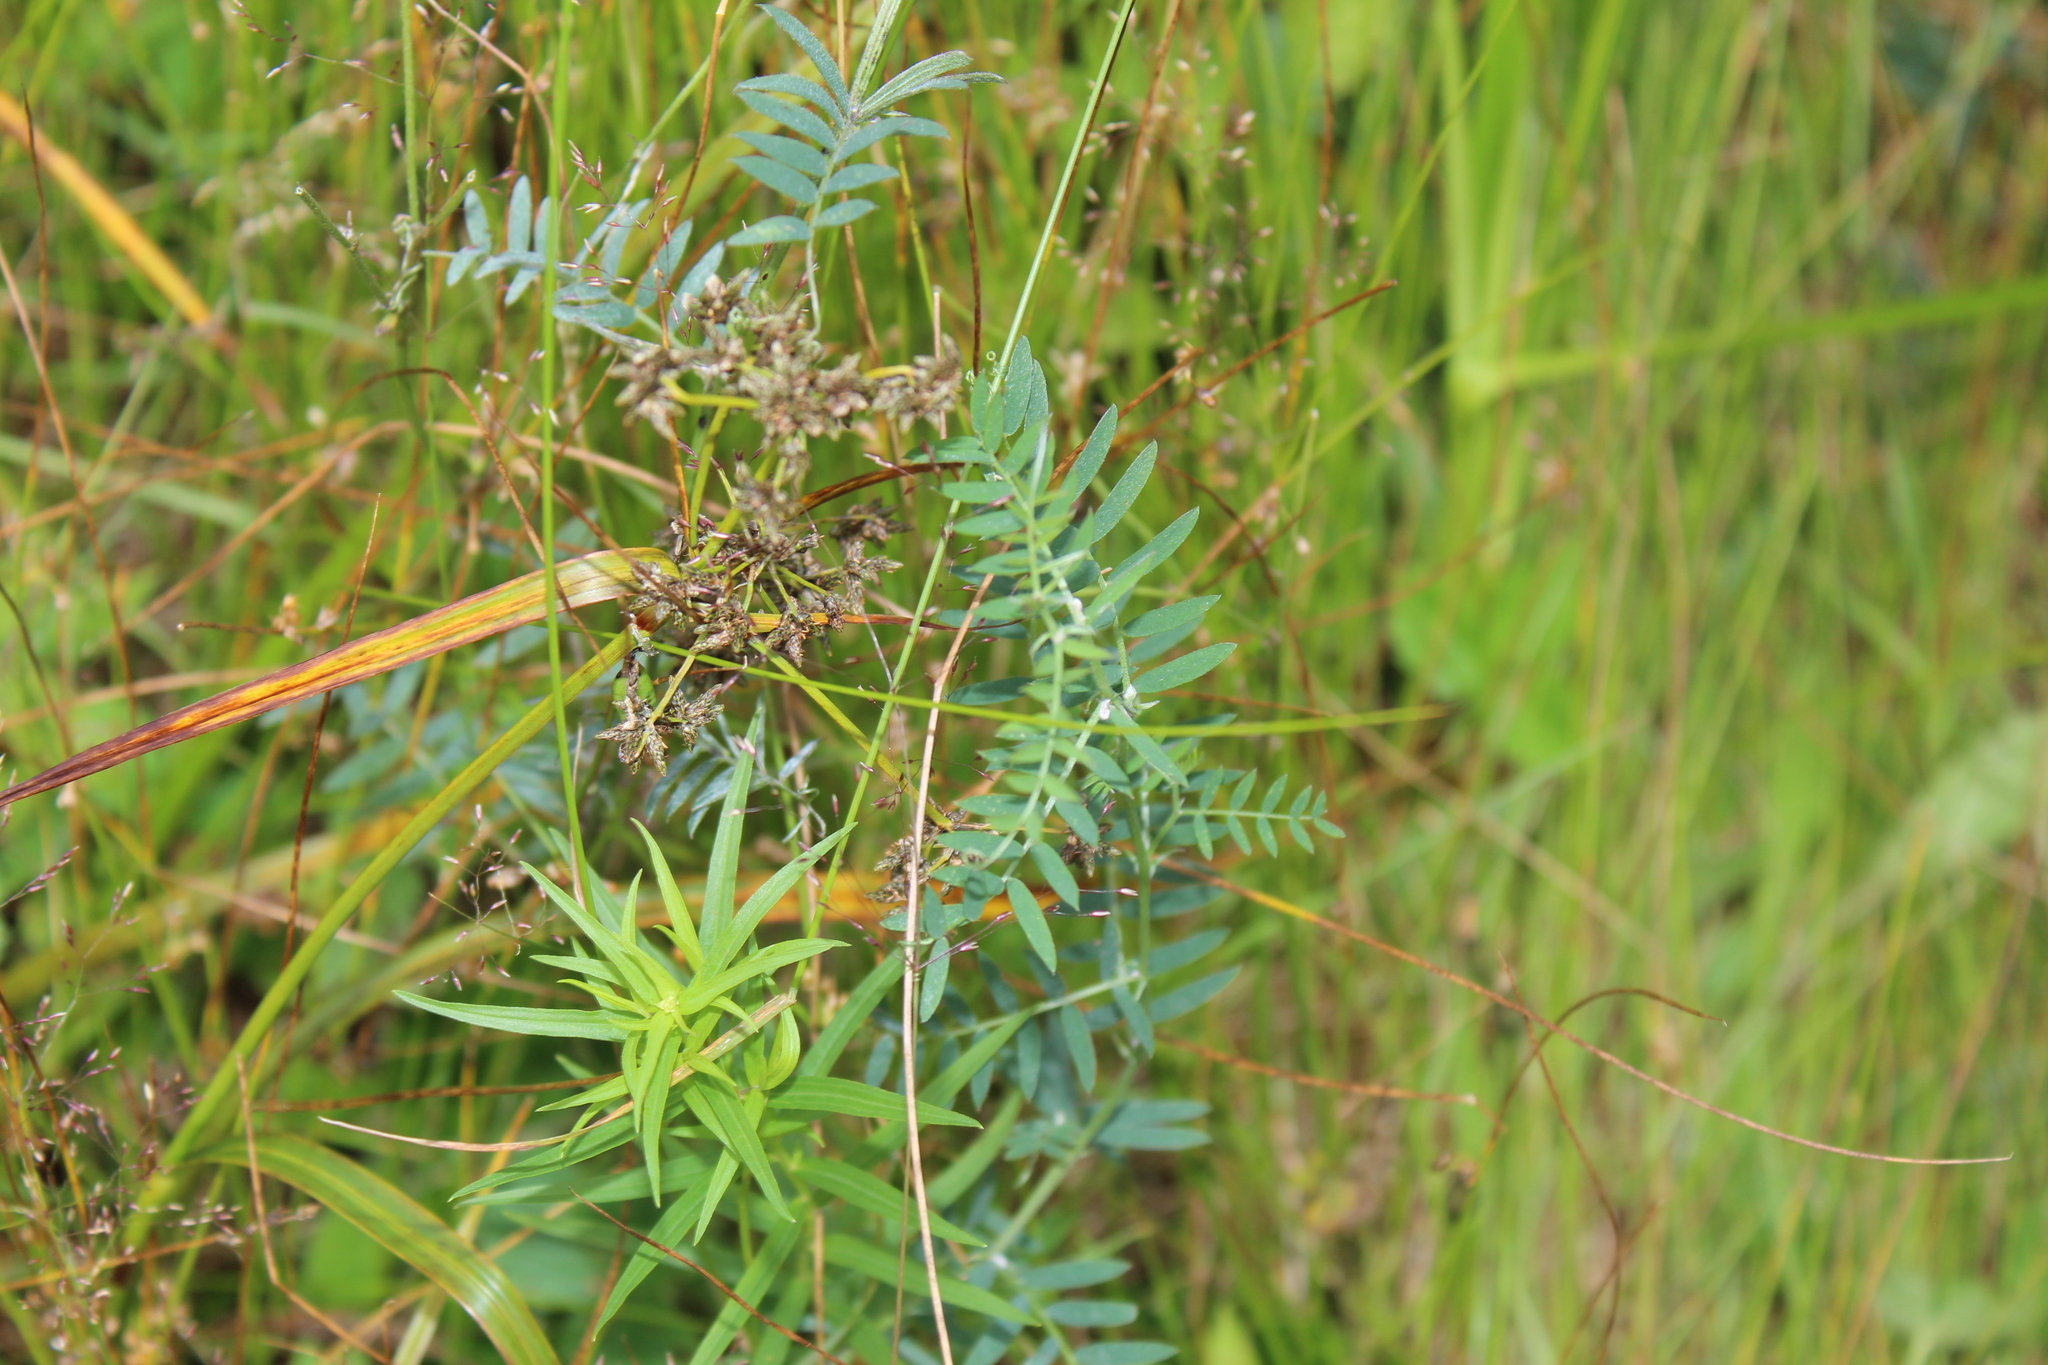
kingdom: Plantae
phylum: Tracheophyta
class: Magnoliopsida
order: Fabales
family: Fabaceae
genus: Vicia
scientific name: Vicia cracca
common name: Bird vetch
